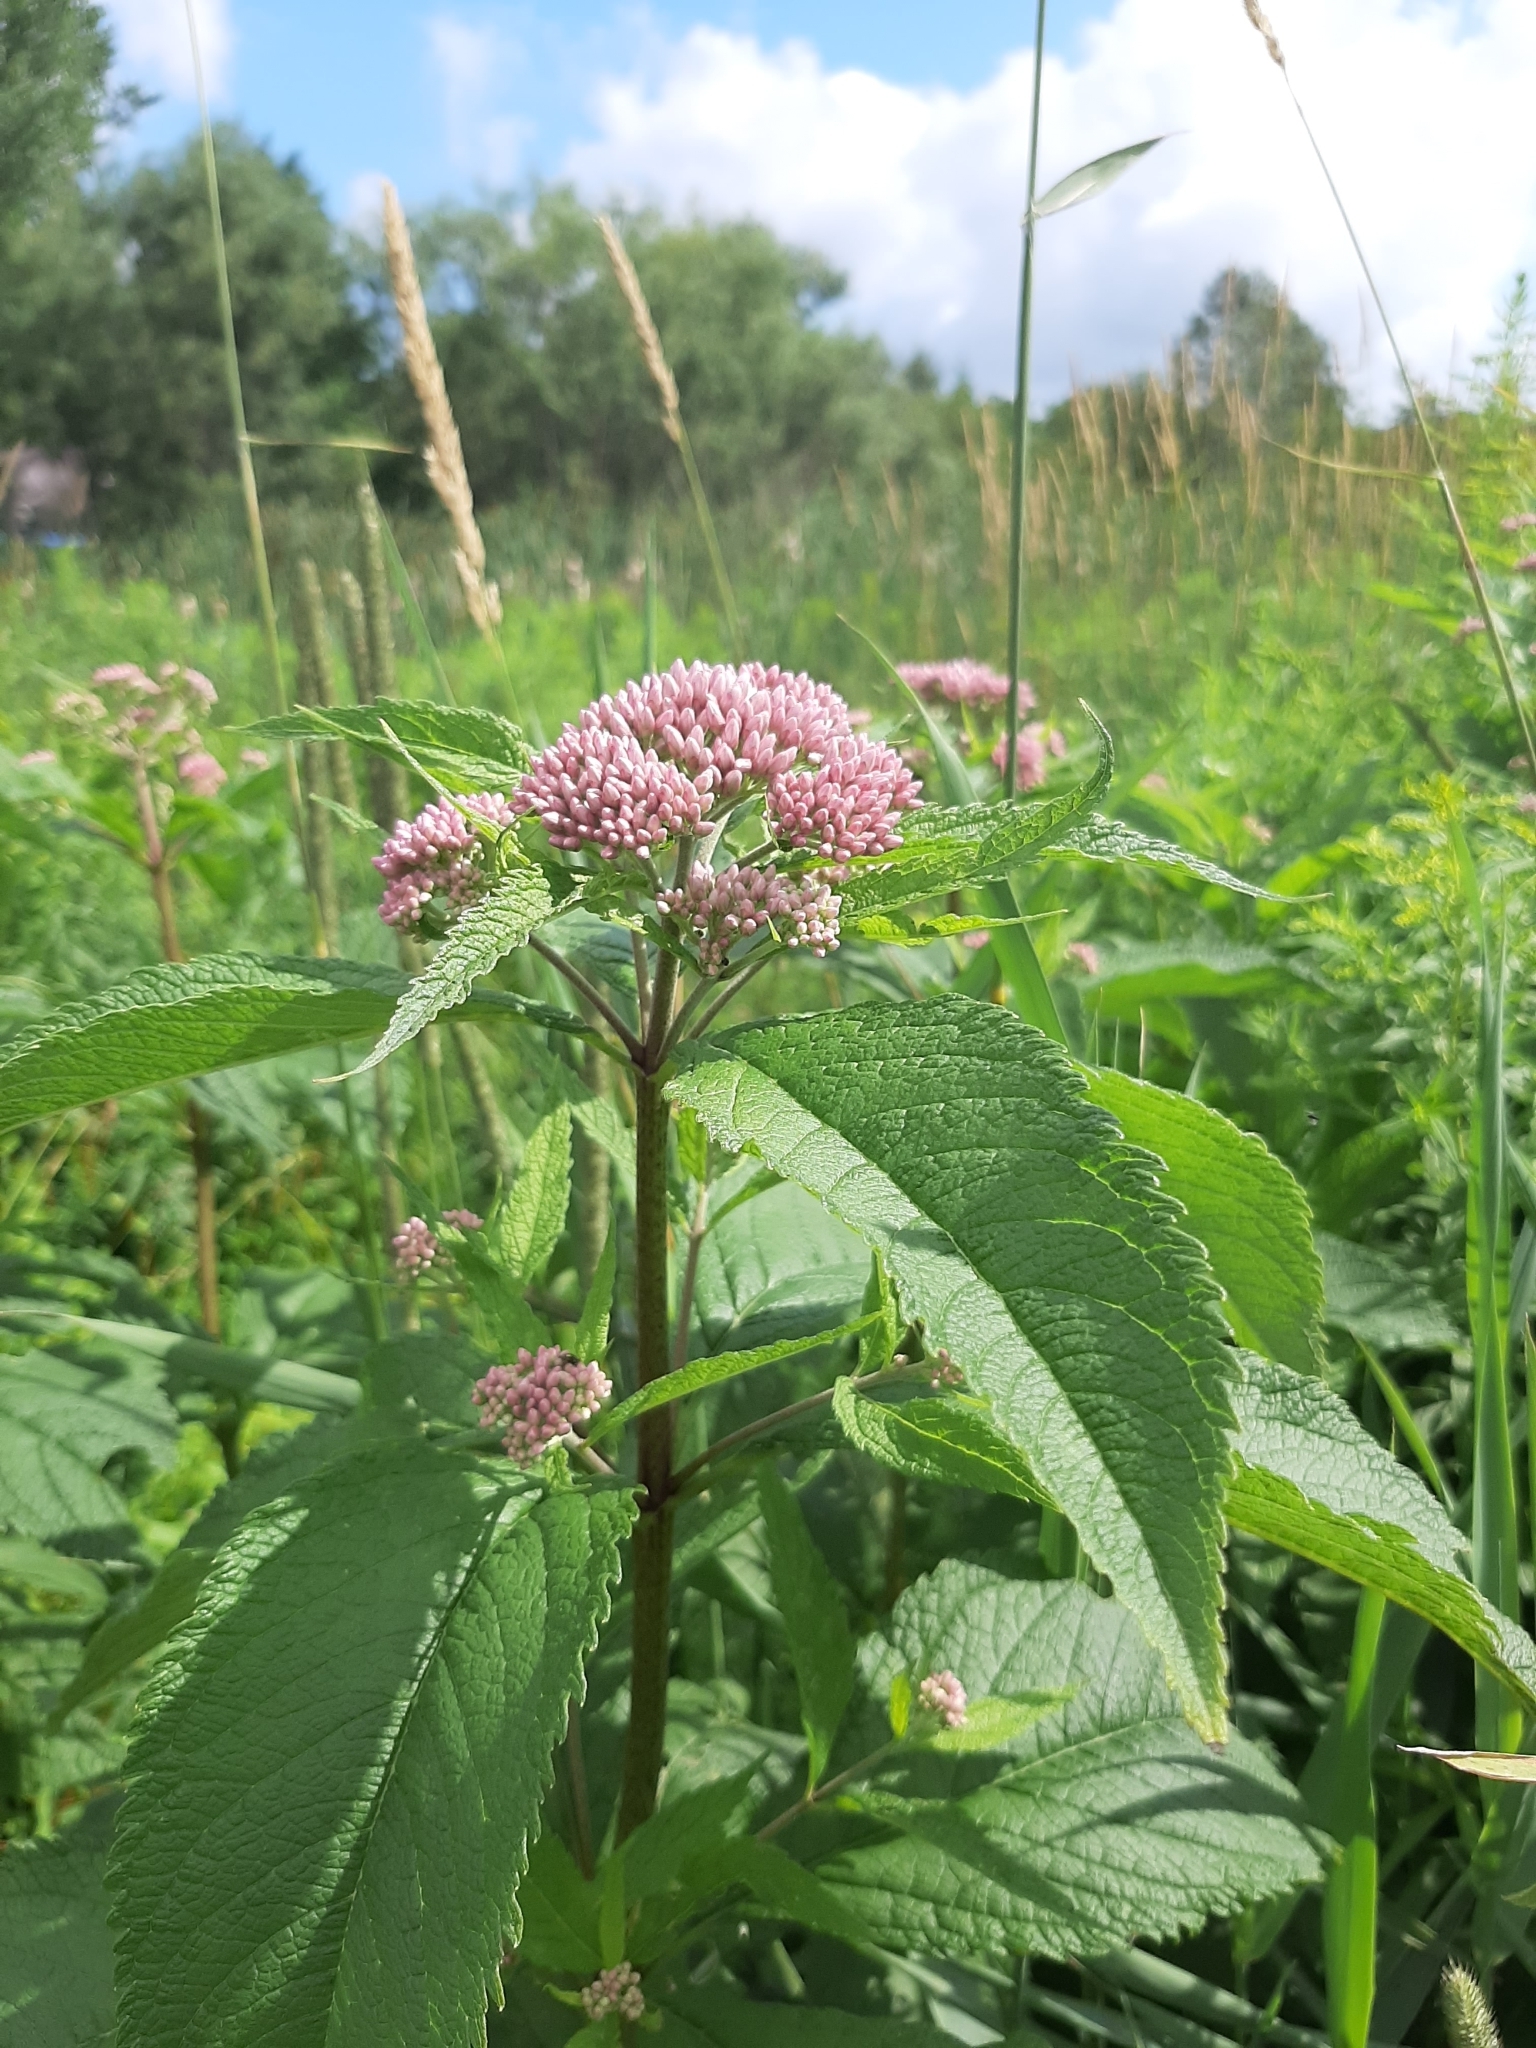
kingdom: Plantae
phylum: Tracheophyta
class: Magnoliopsida
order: Asterales
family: Asteraceae
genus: Eutrochium
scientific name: Eutrochium maculatum
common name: Spotted joe pye weed
